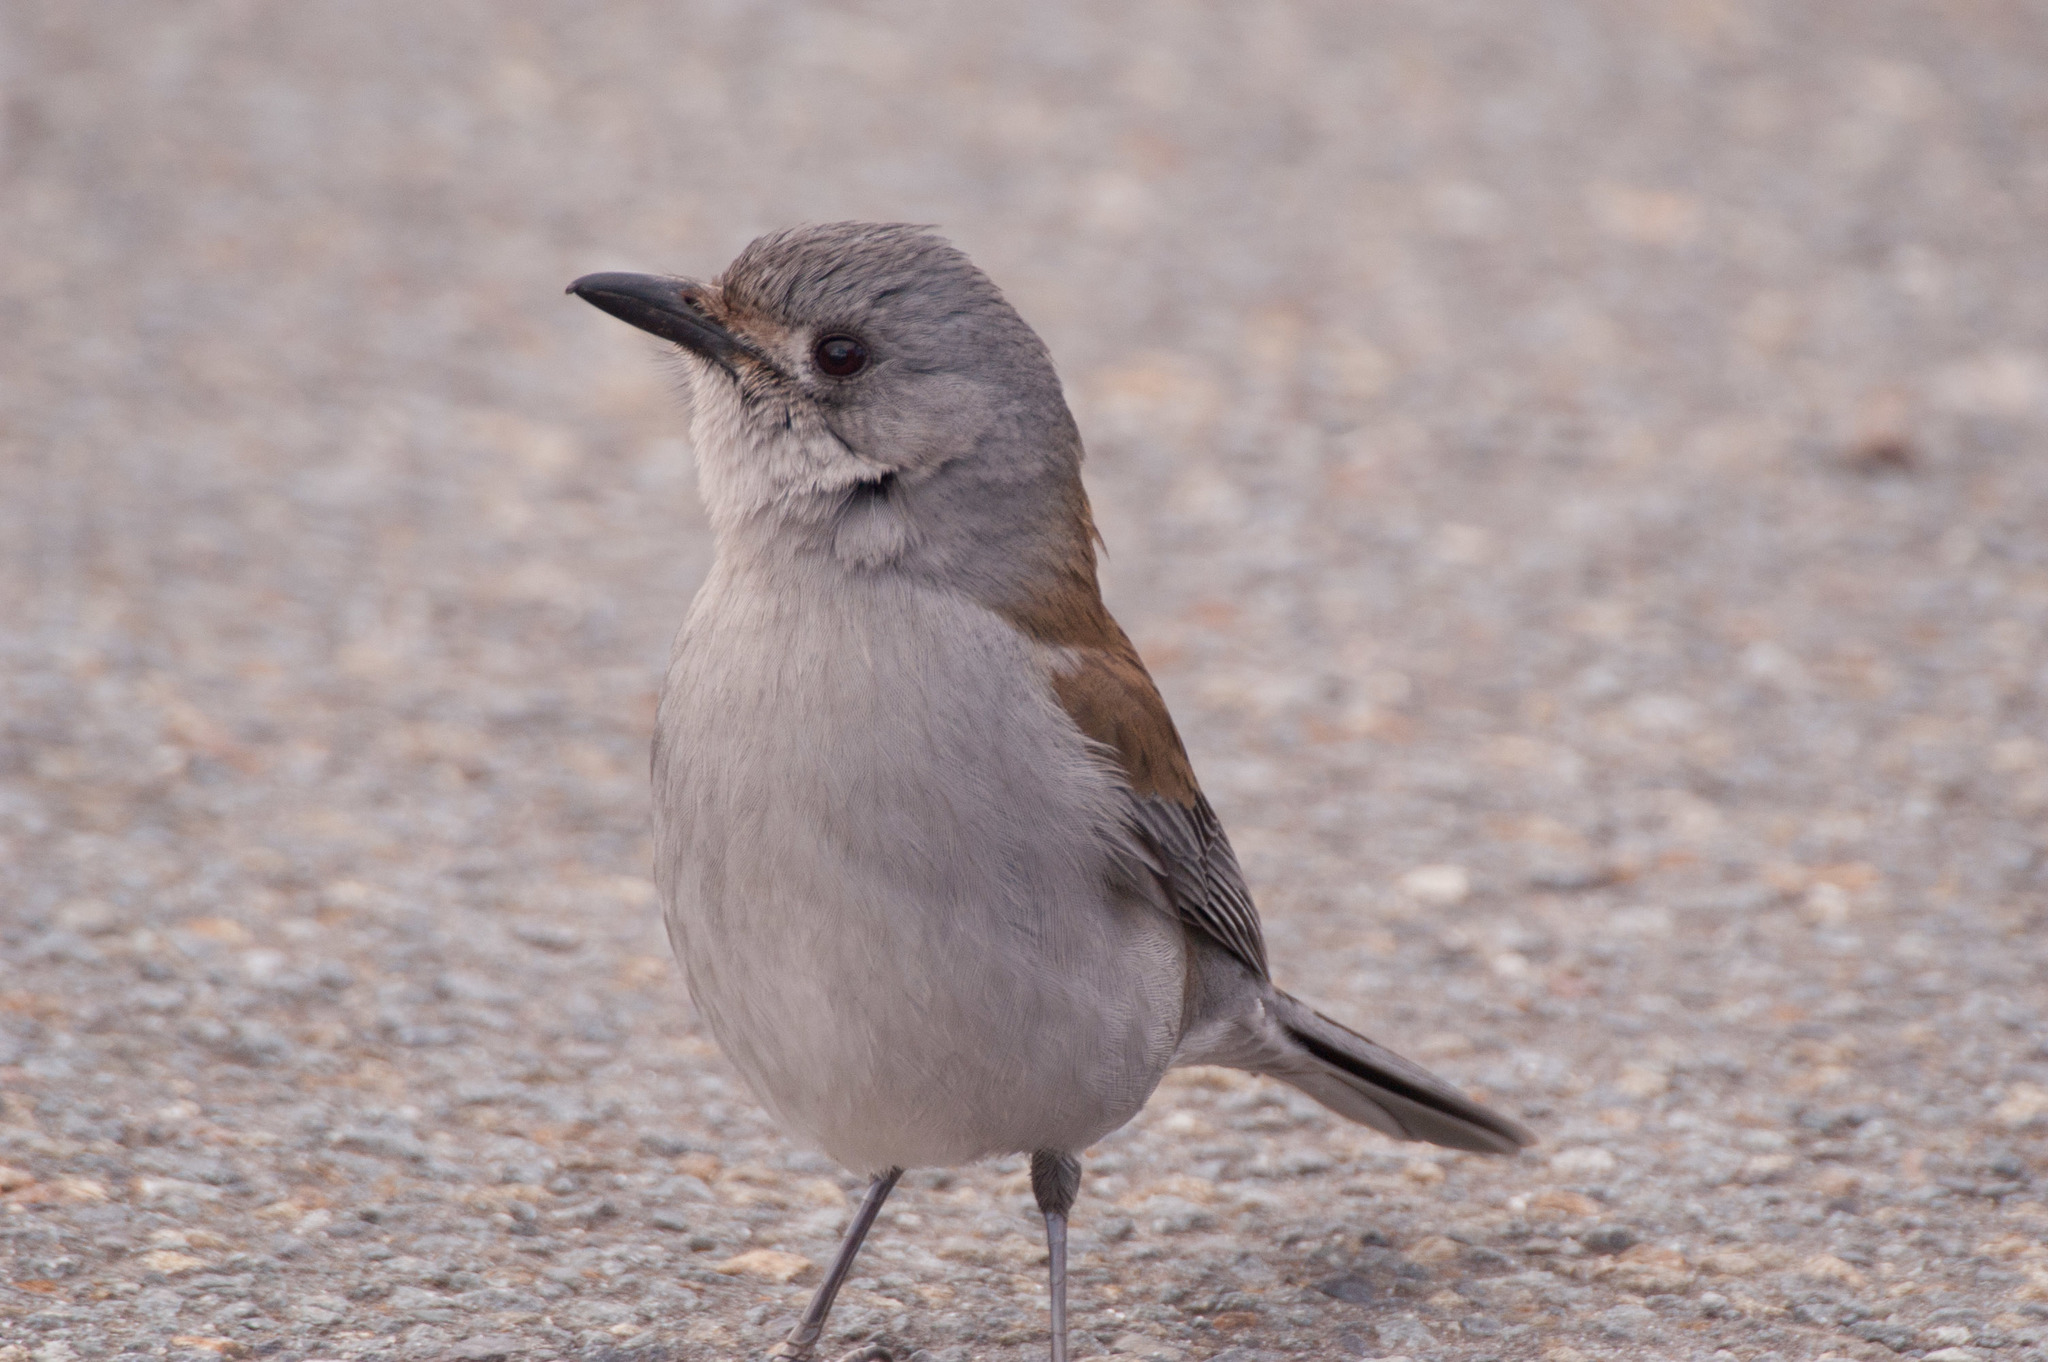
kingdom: Animalia
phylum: Chordata
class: Aves
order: Passeriformes
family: Pachycephalidae
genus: Colluricincla
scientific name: Colluricincla harmonica
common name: Grey shrikethrush
